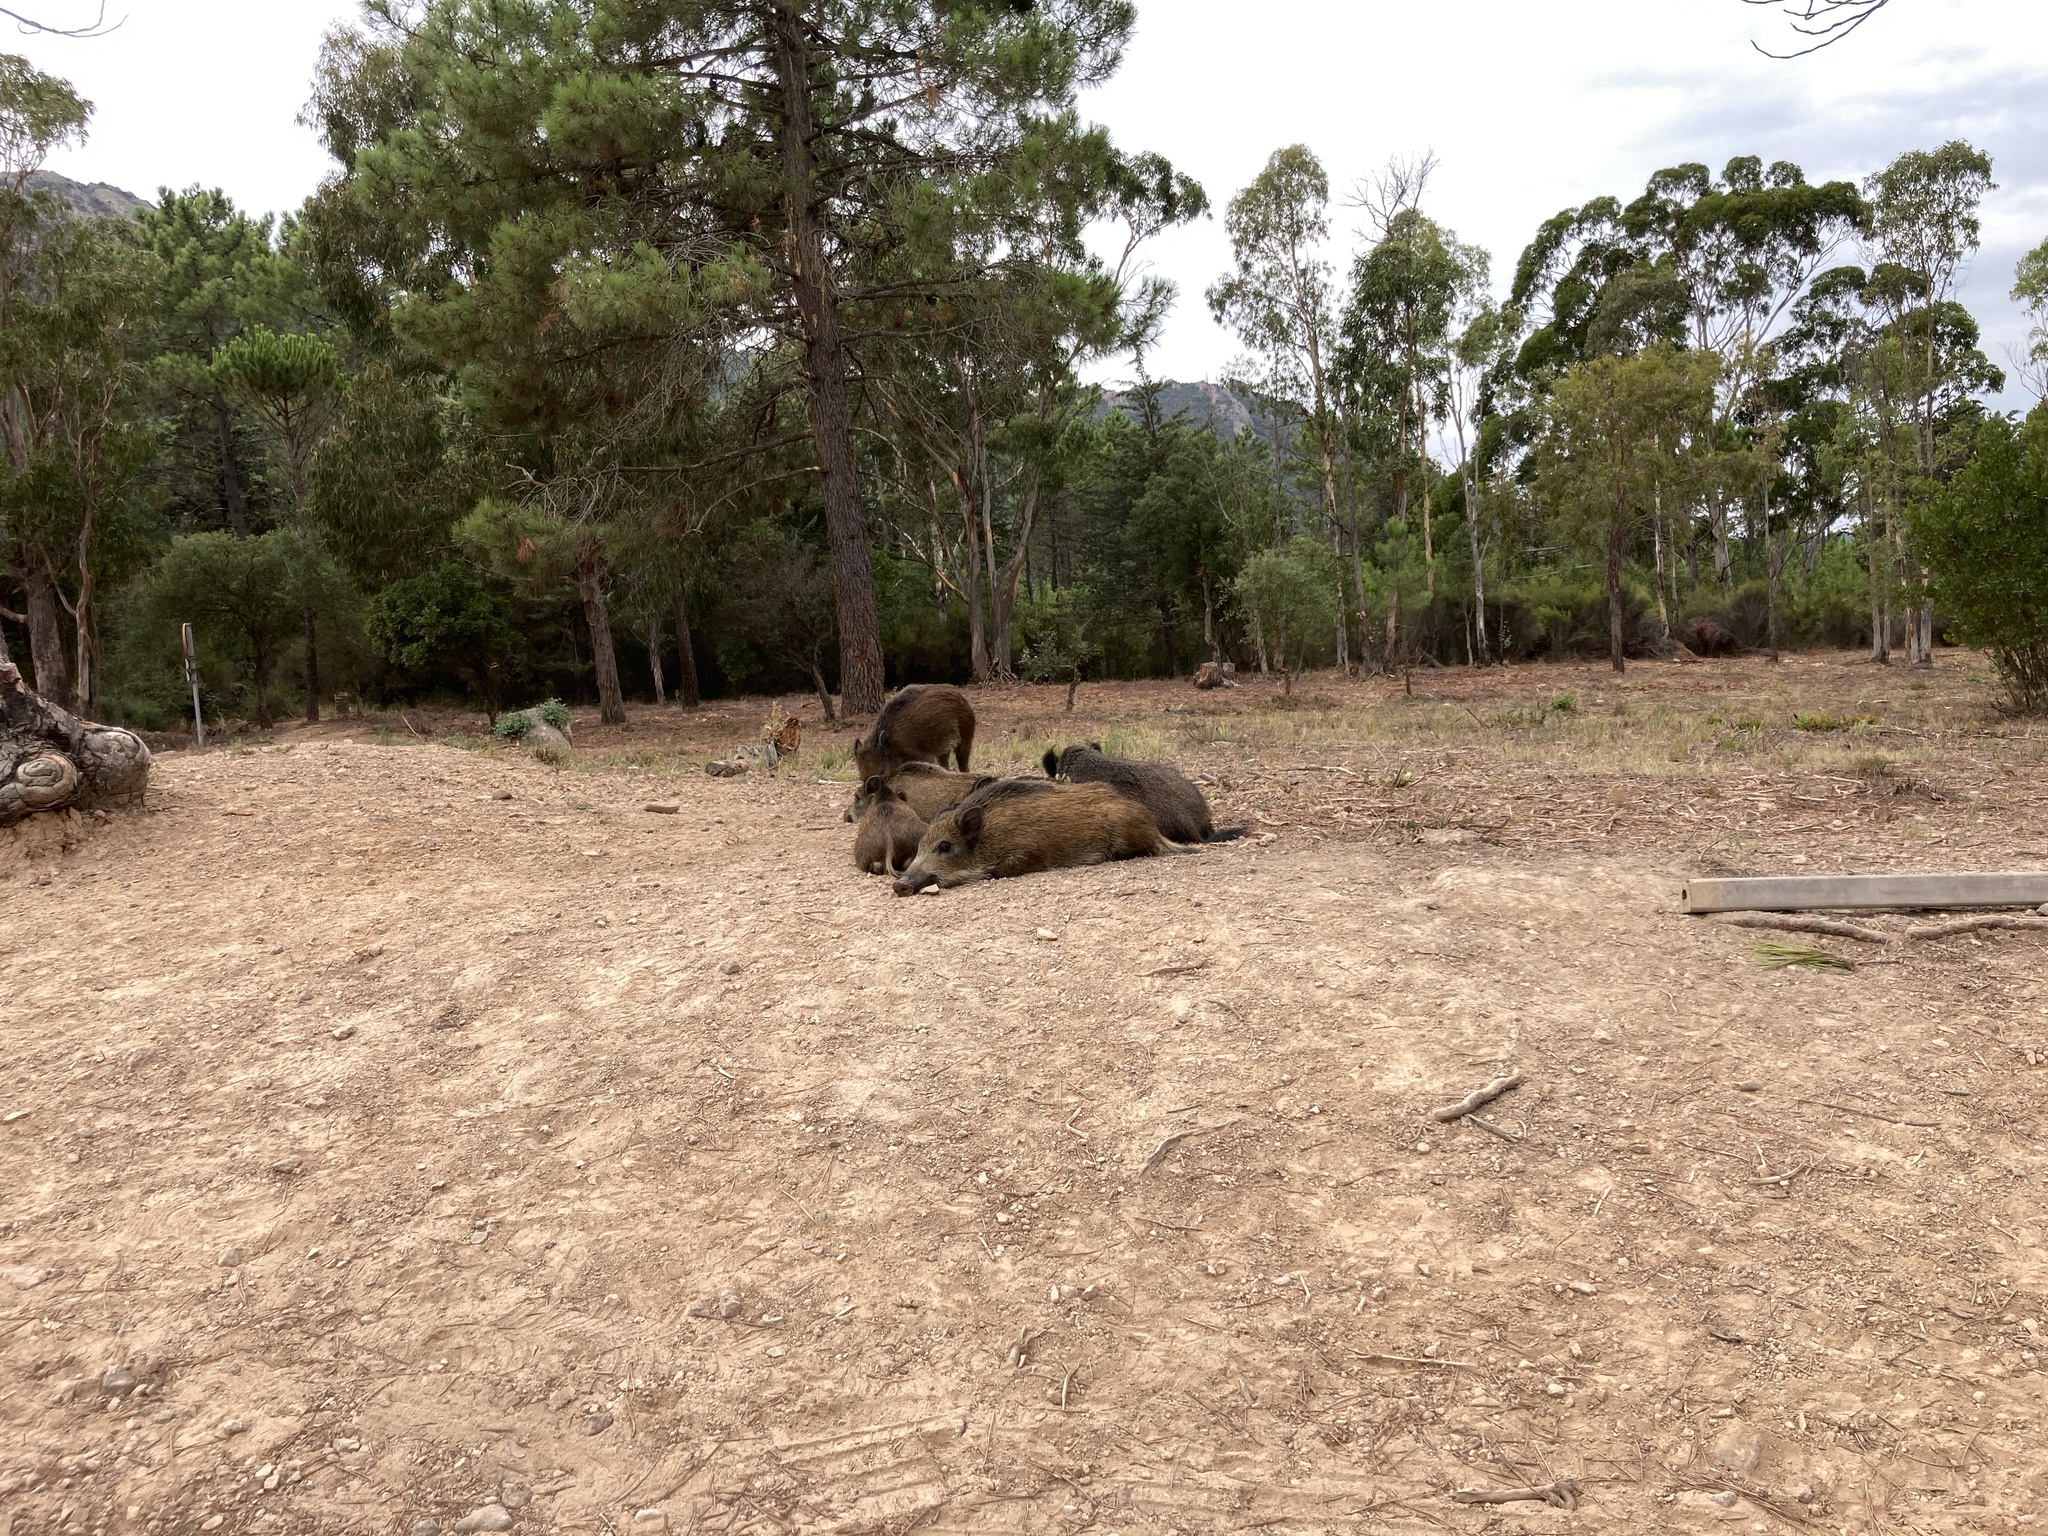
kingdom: Animalia
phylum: Chordata
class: Mammalia
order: Artiodactyla
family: Suidae
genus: Sus
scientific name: Sus scrofa
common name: Wild boar
